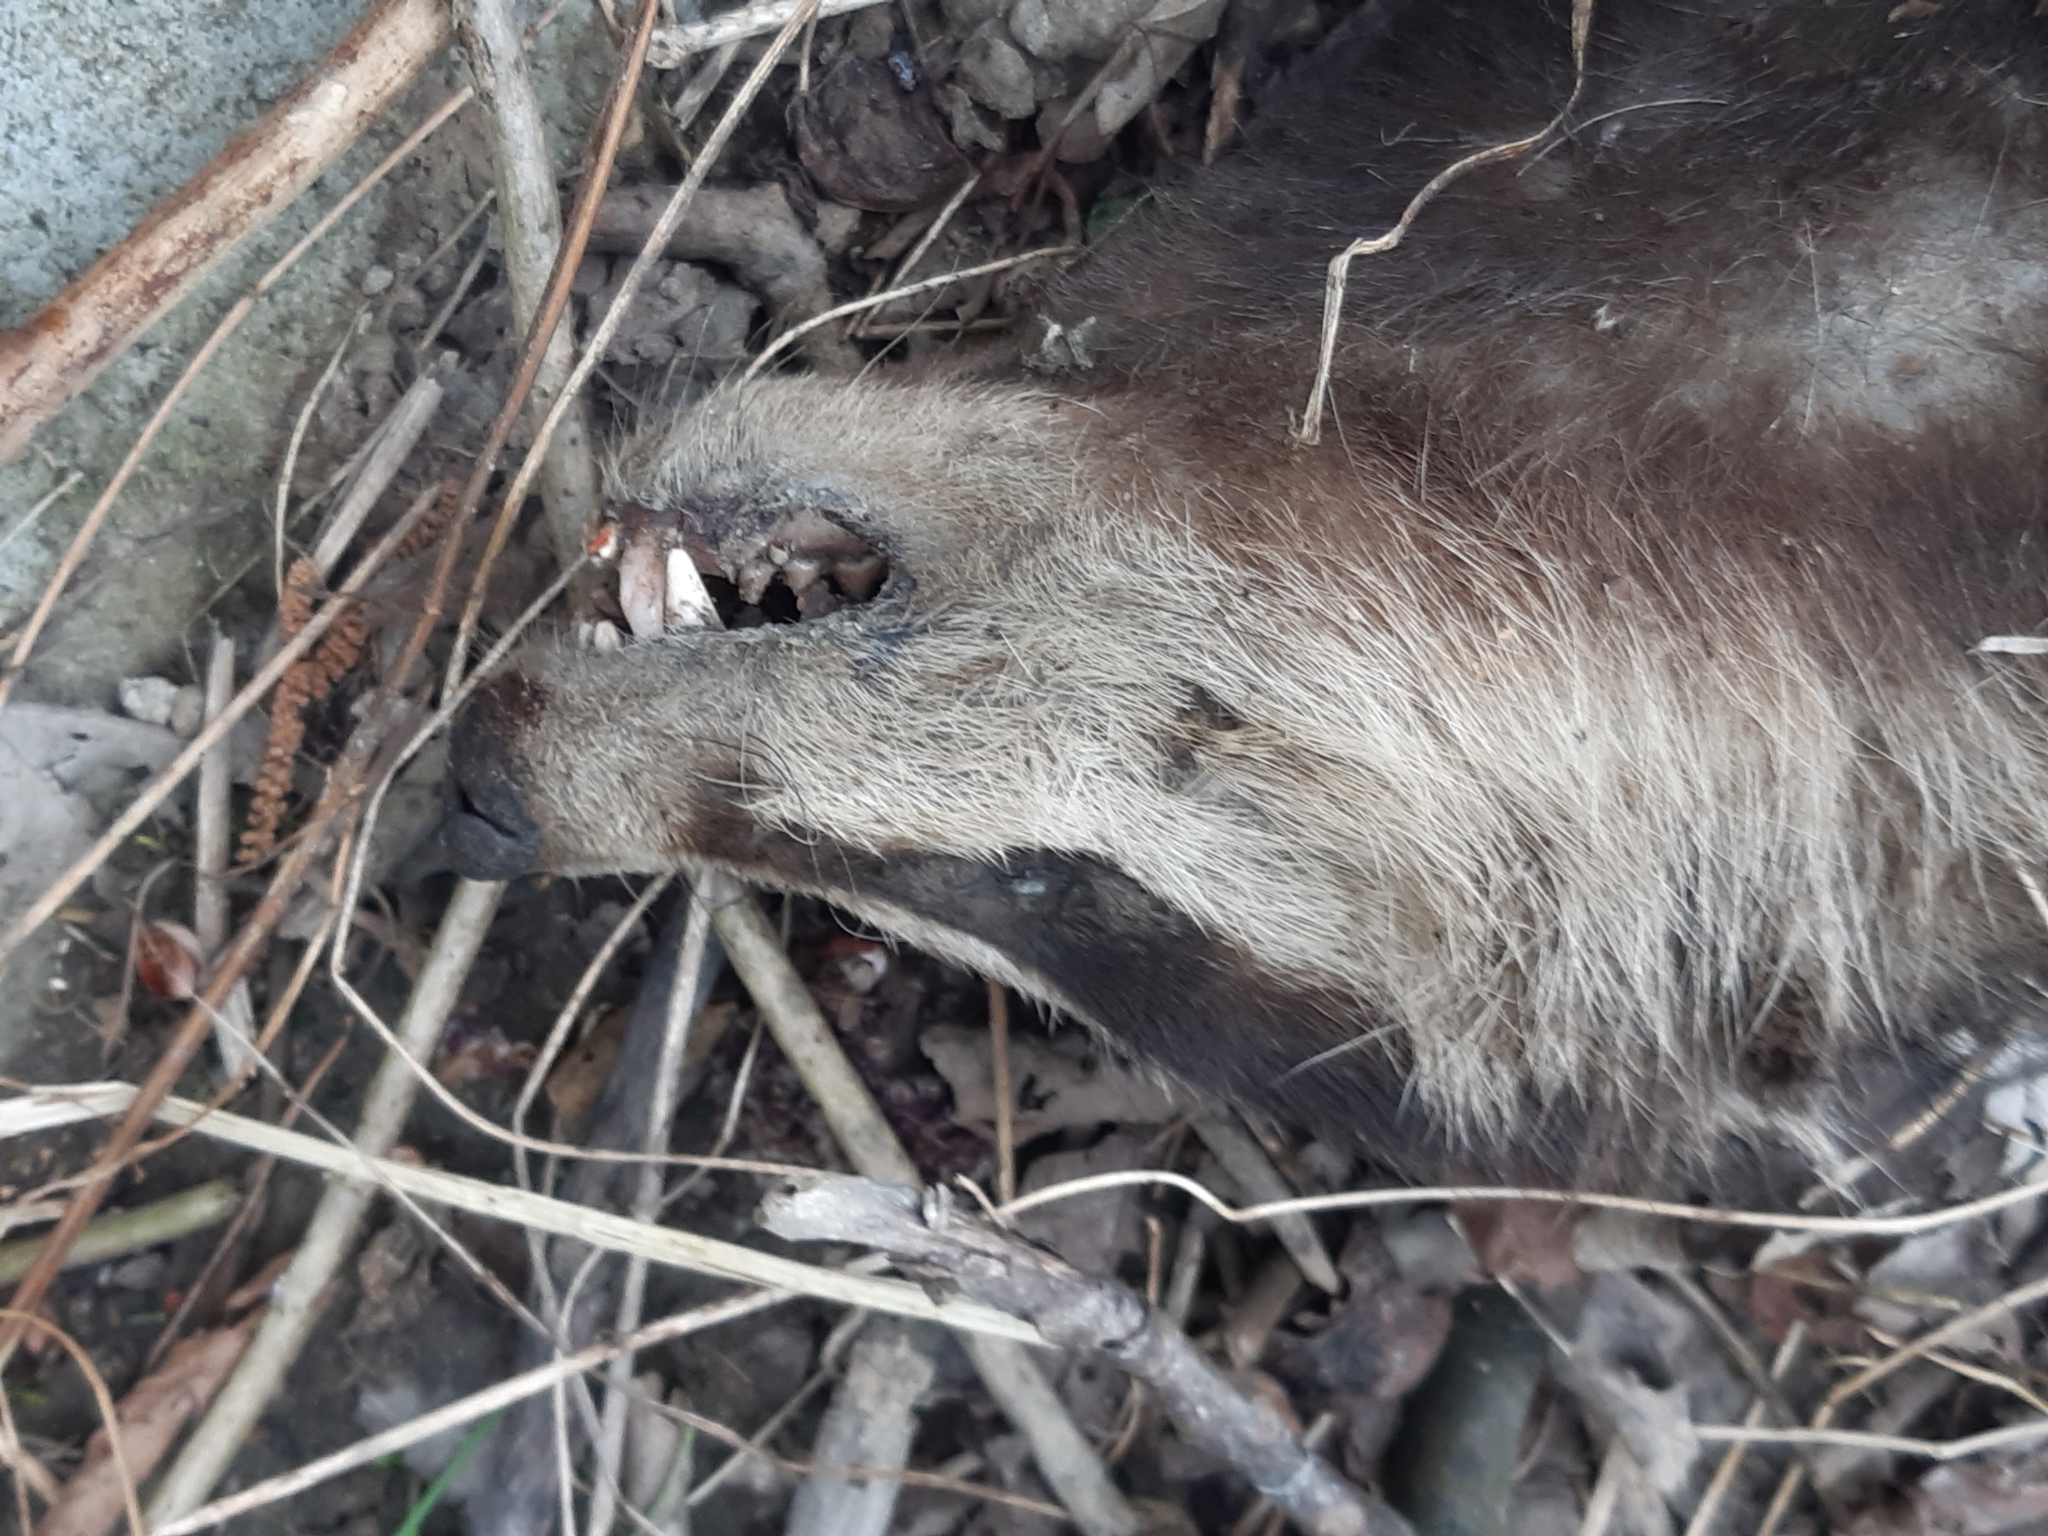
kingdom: Animalia
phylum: Chordata
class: Mammalia
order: Carnivora
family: Mustelidae
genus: Meles
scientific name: Meles meles
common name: Eurasian badger
